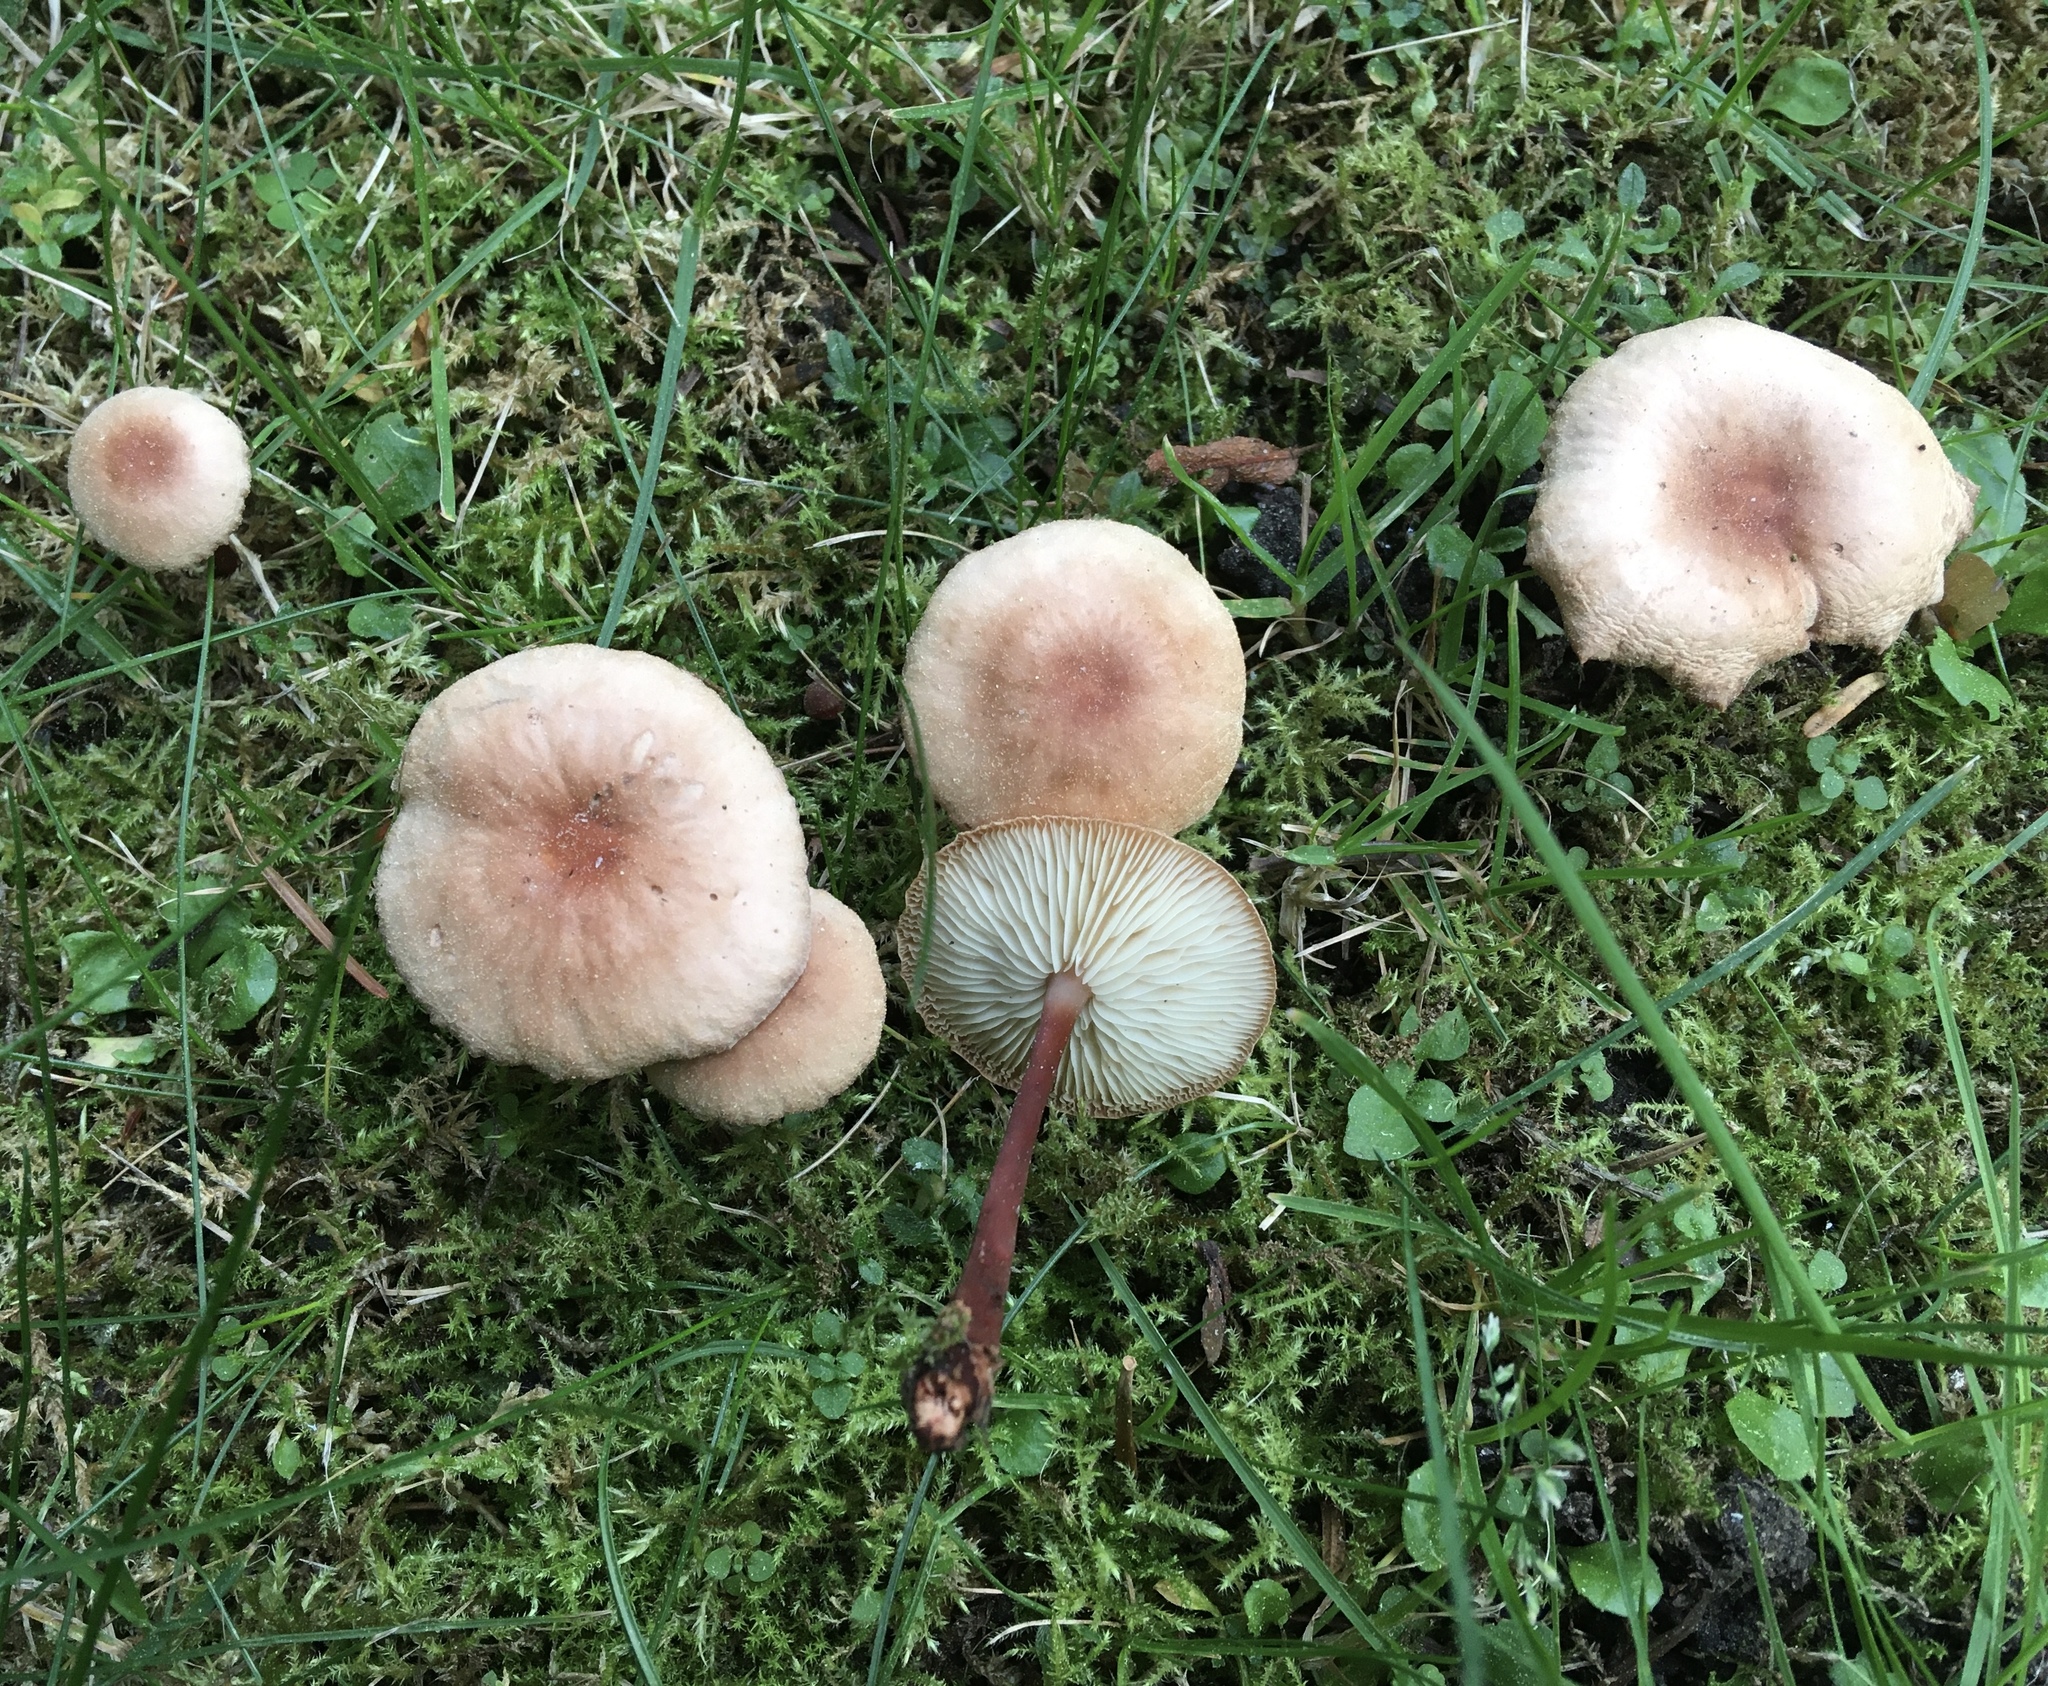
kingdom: Fungi
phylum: Basidiomycota
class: Agaricomycetes
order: Agaricales
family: Omphalotaceae
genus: Gymnopus
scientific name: Gymnopus erythropus
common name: Redleg toughshank
